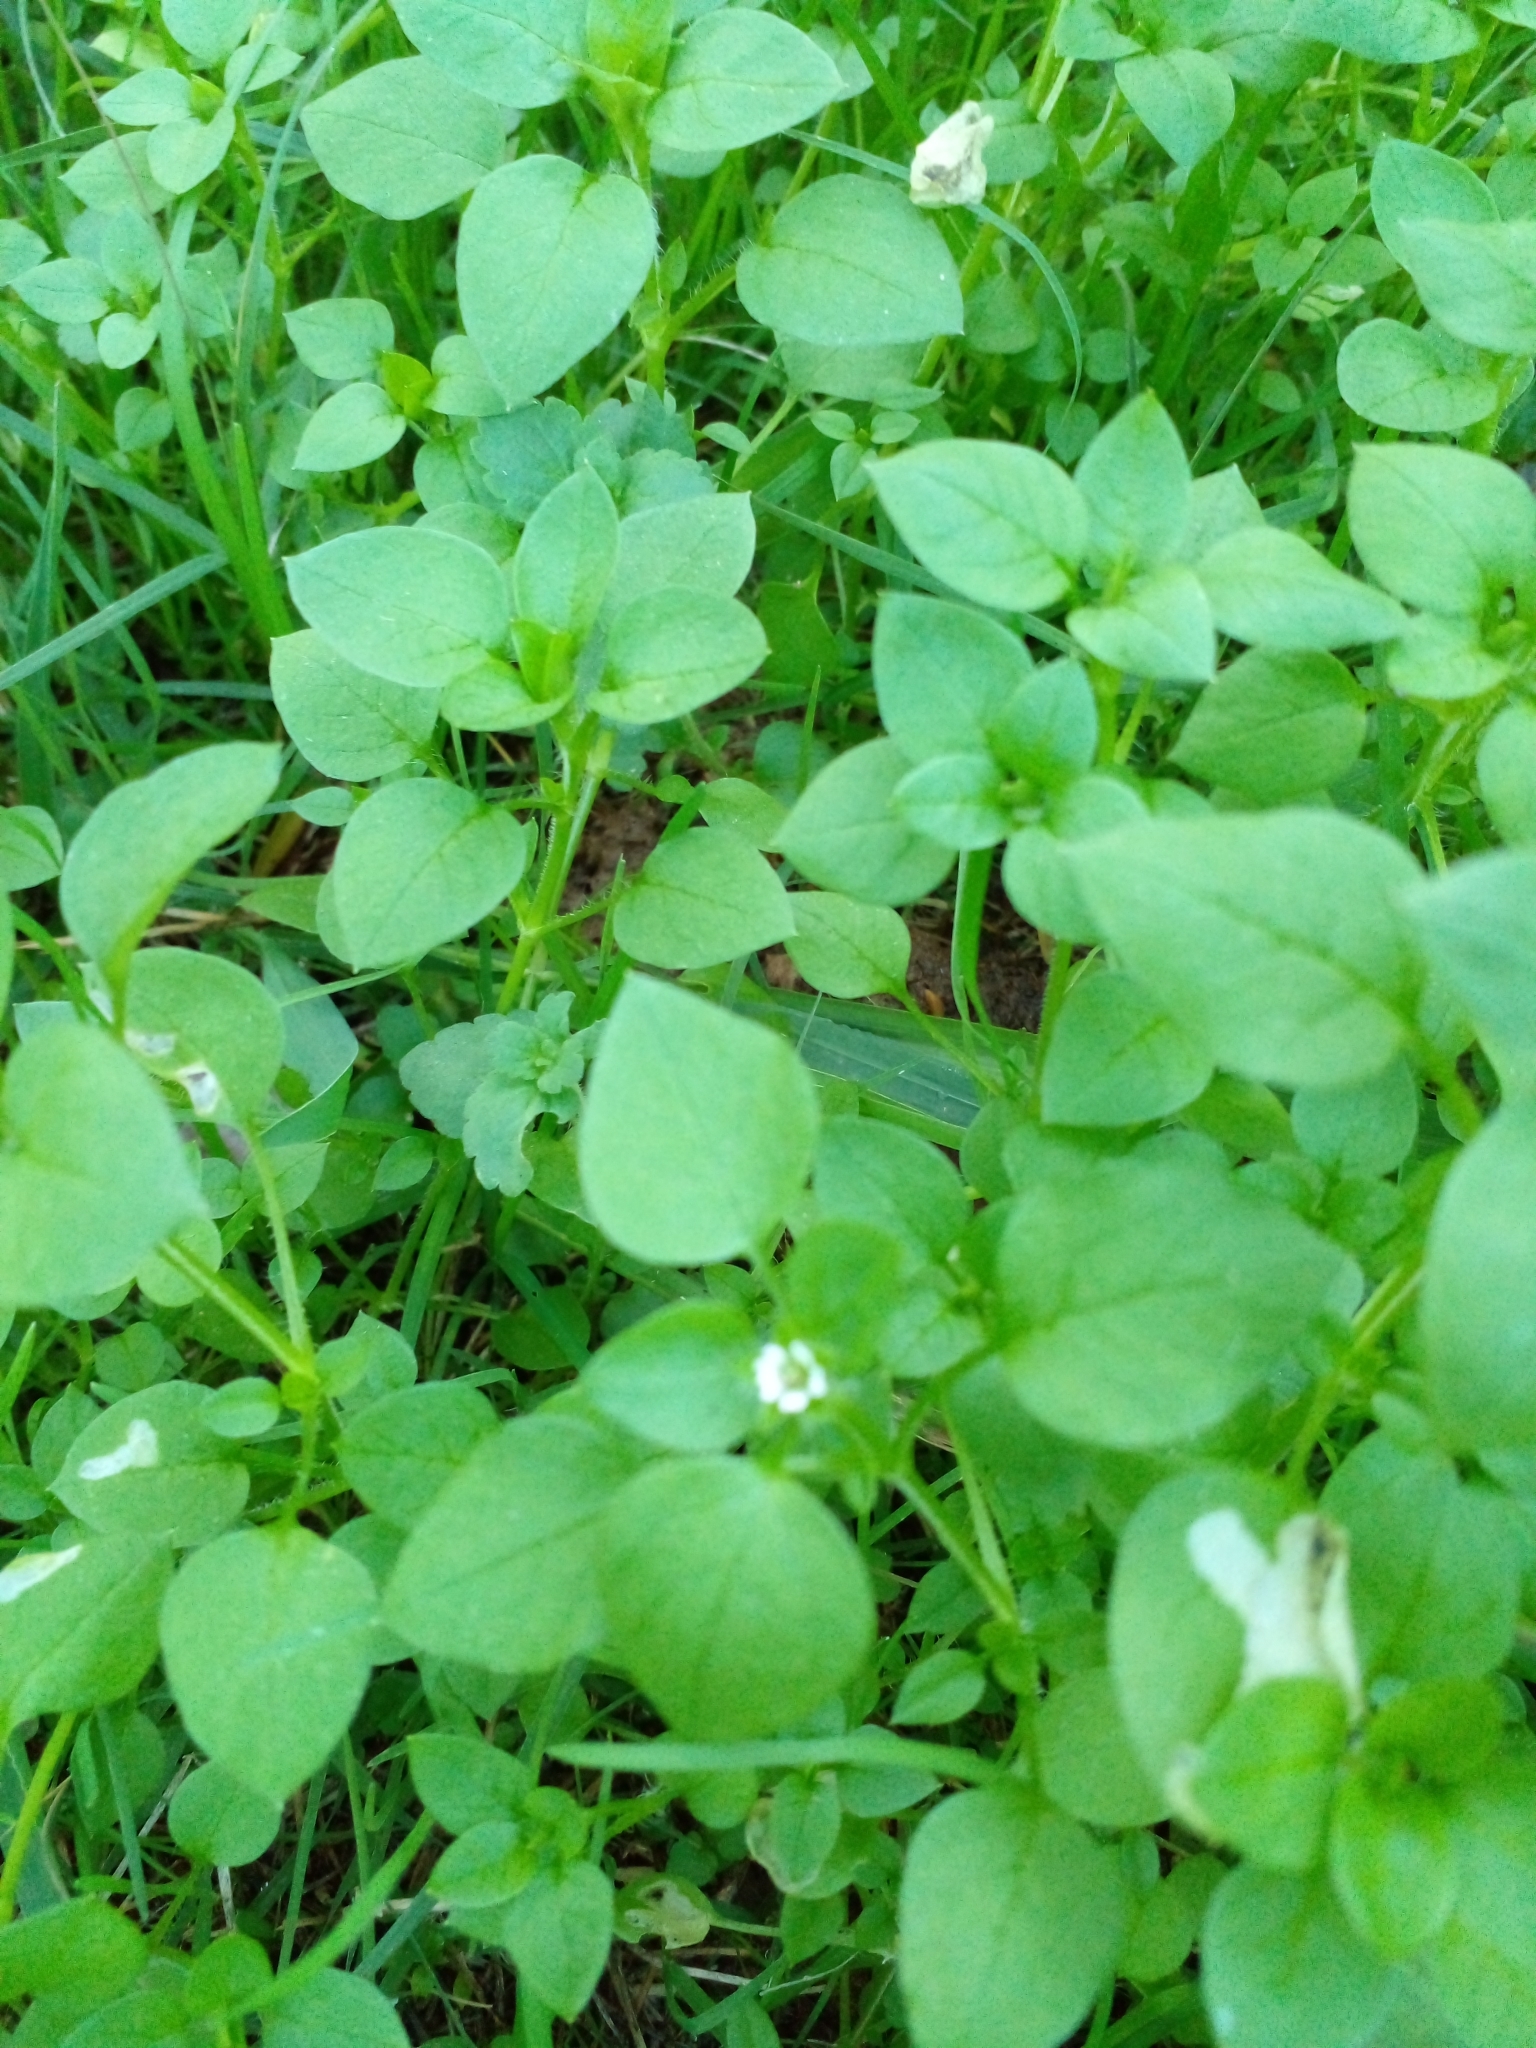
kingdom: Plantae
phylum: Tracheophyta
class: Magnoliopsida
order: Caryophyllales
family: Caryophyllaceae
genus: Stellaria
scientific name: Stellaria media
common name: Common chickweed
